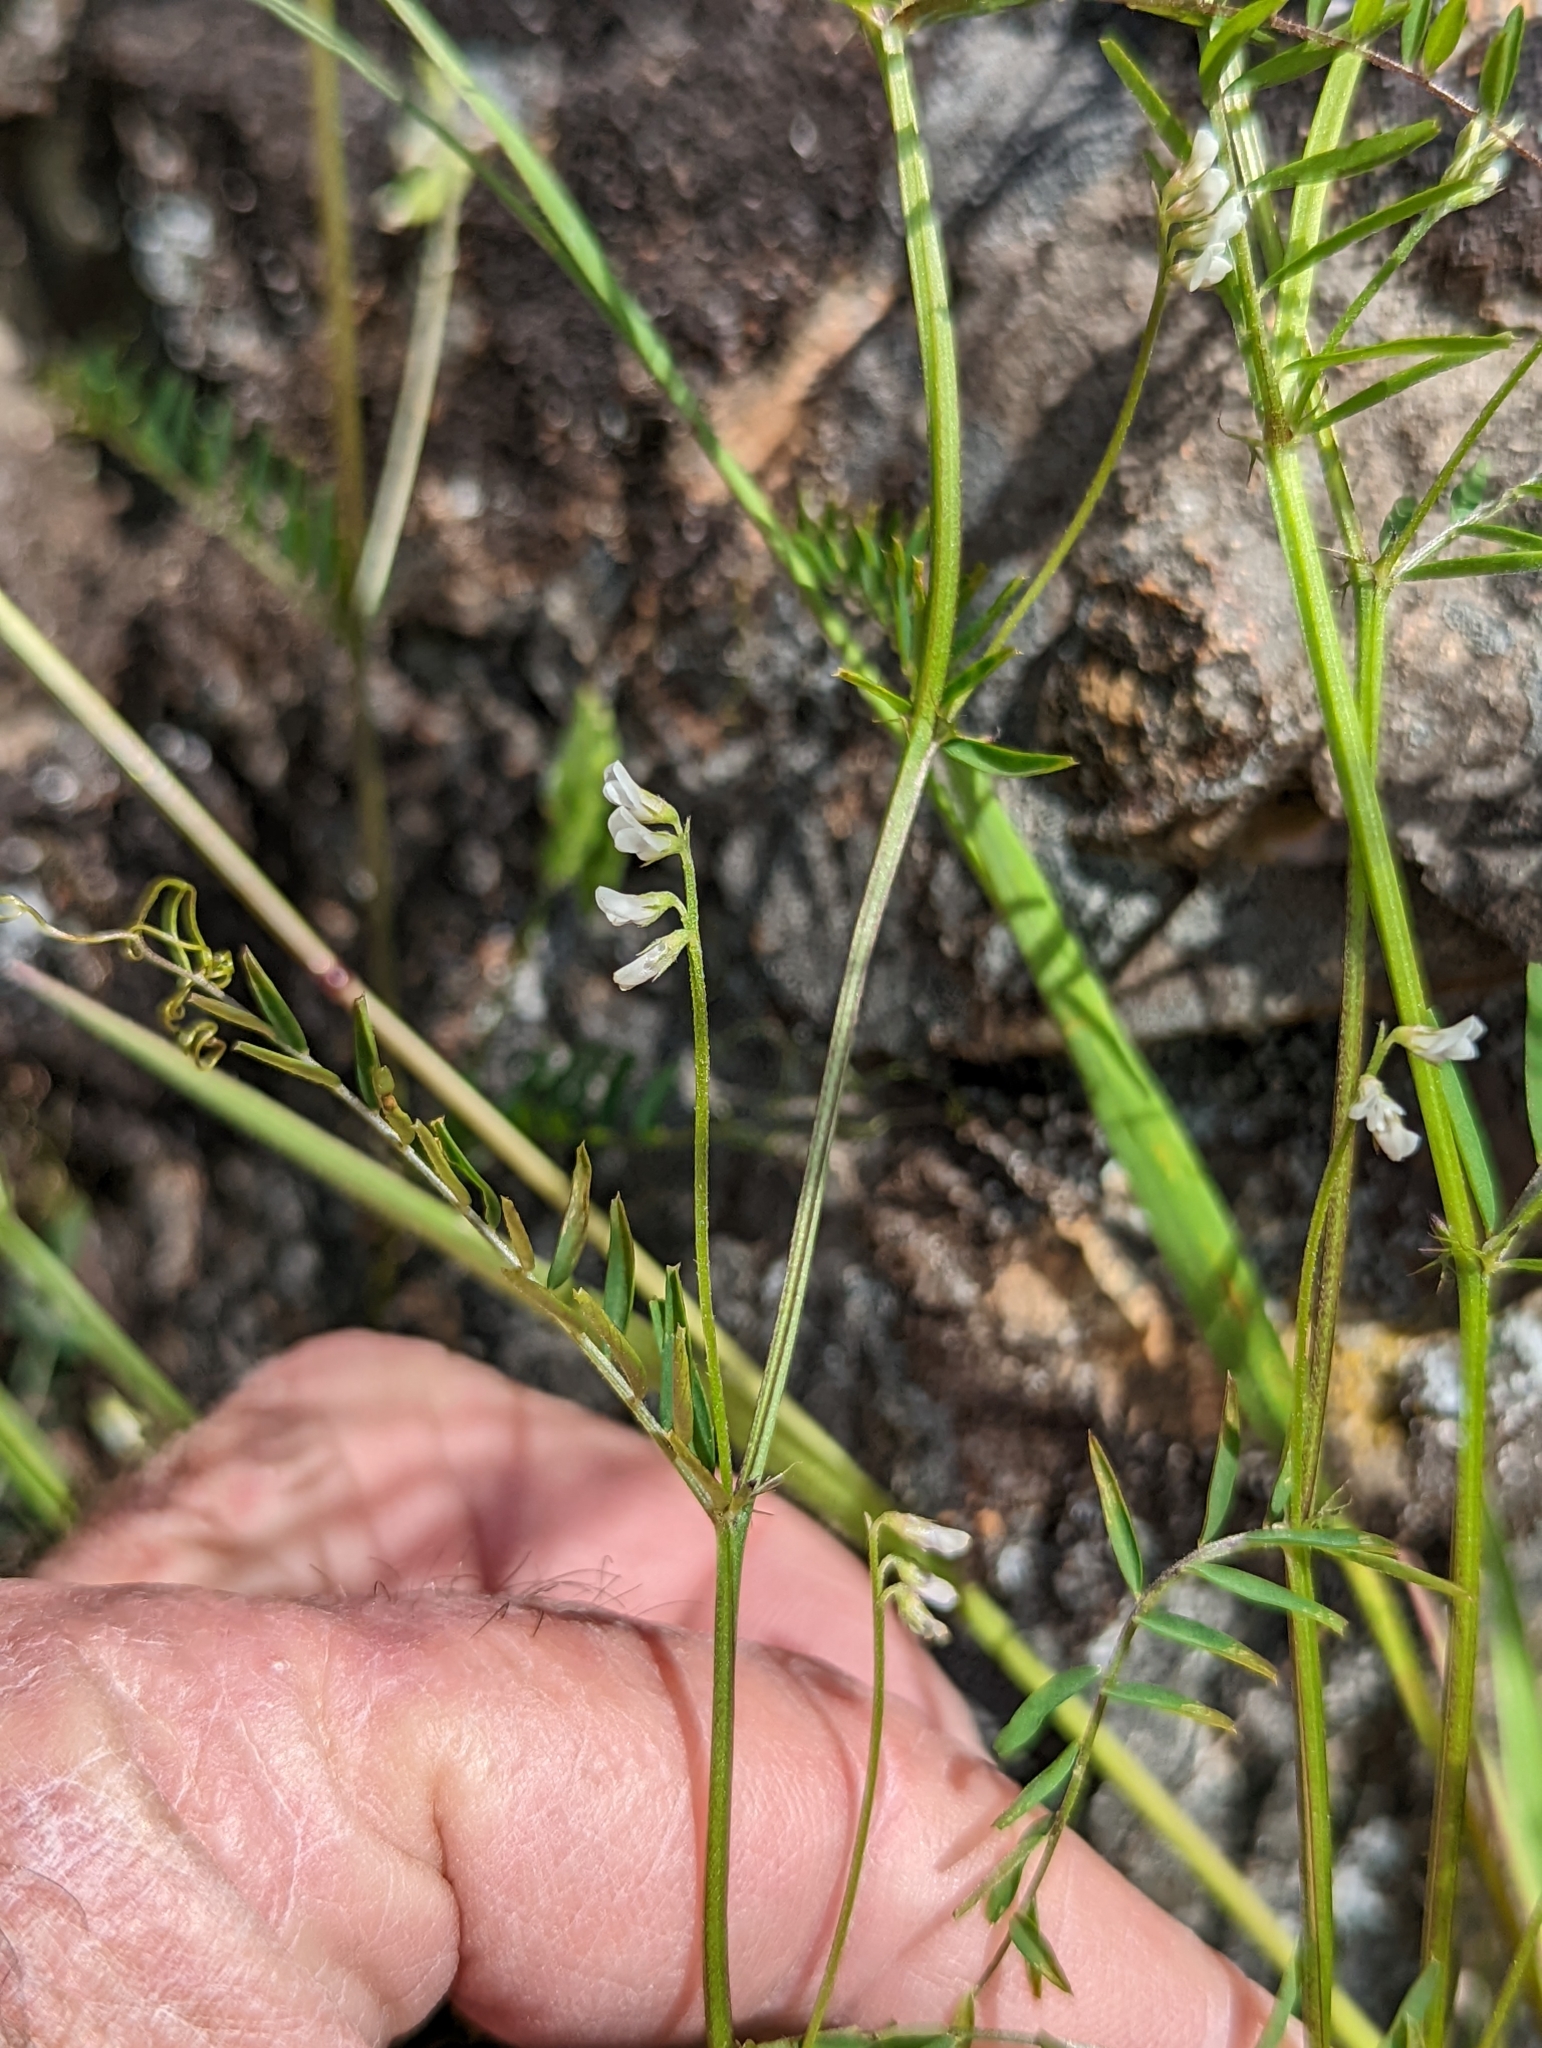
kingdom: Plantae
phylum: Tracheophyta
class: Magnoliopsida
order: Fabales
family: Fabaceae
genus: Vicia
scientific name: Vicia hirsuta
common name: Tiny vetch
